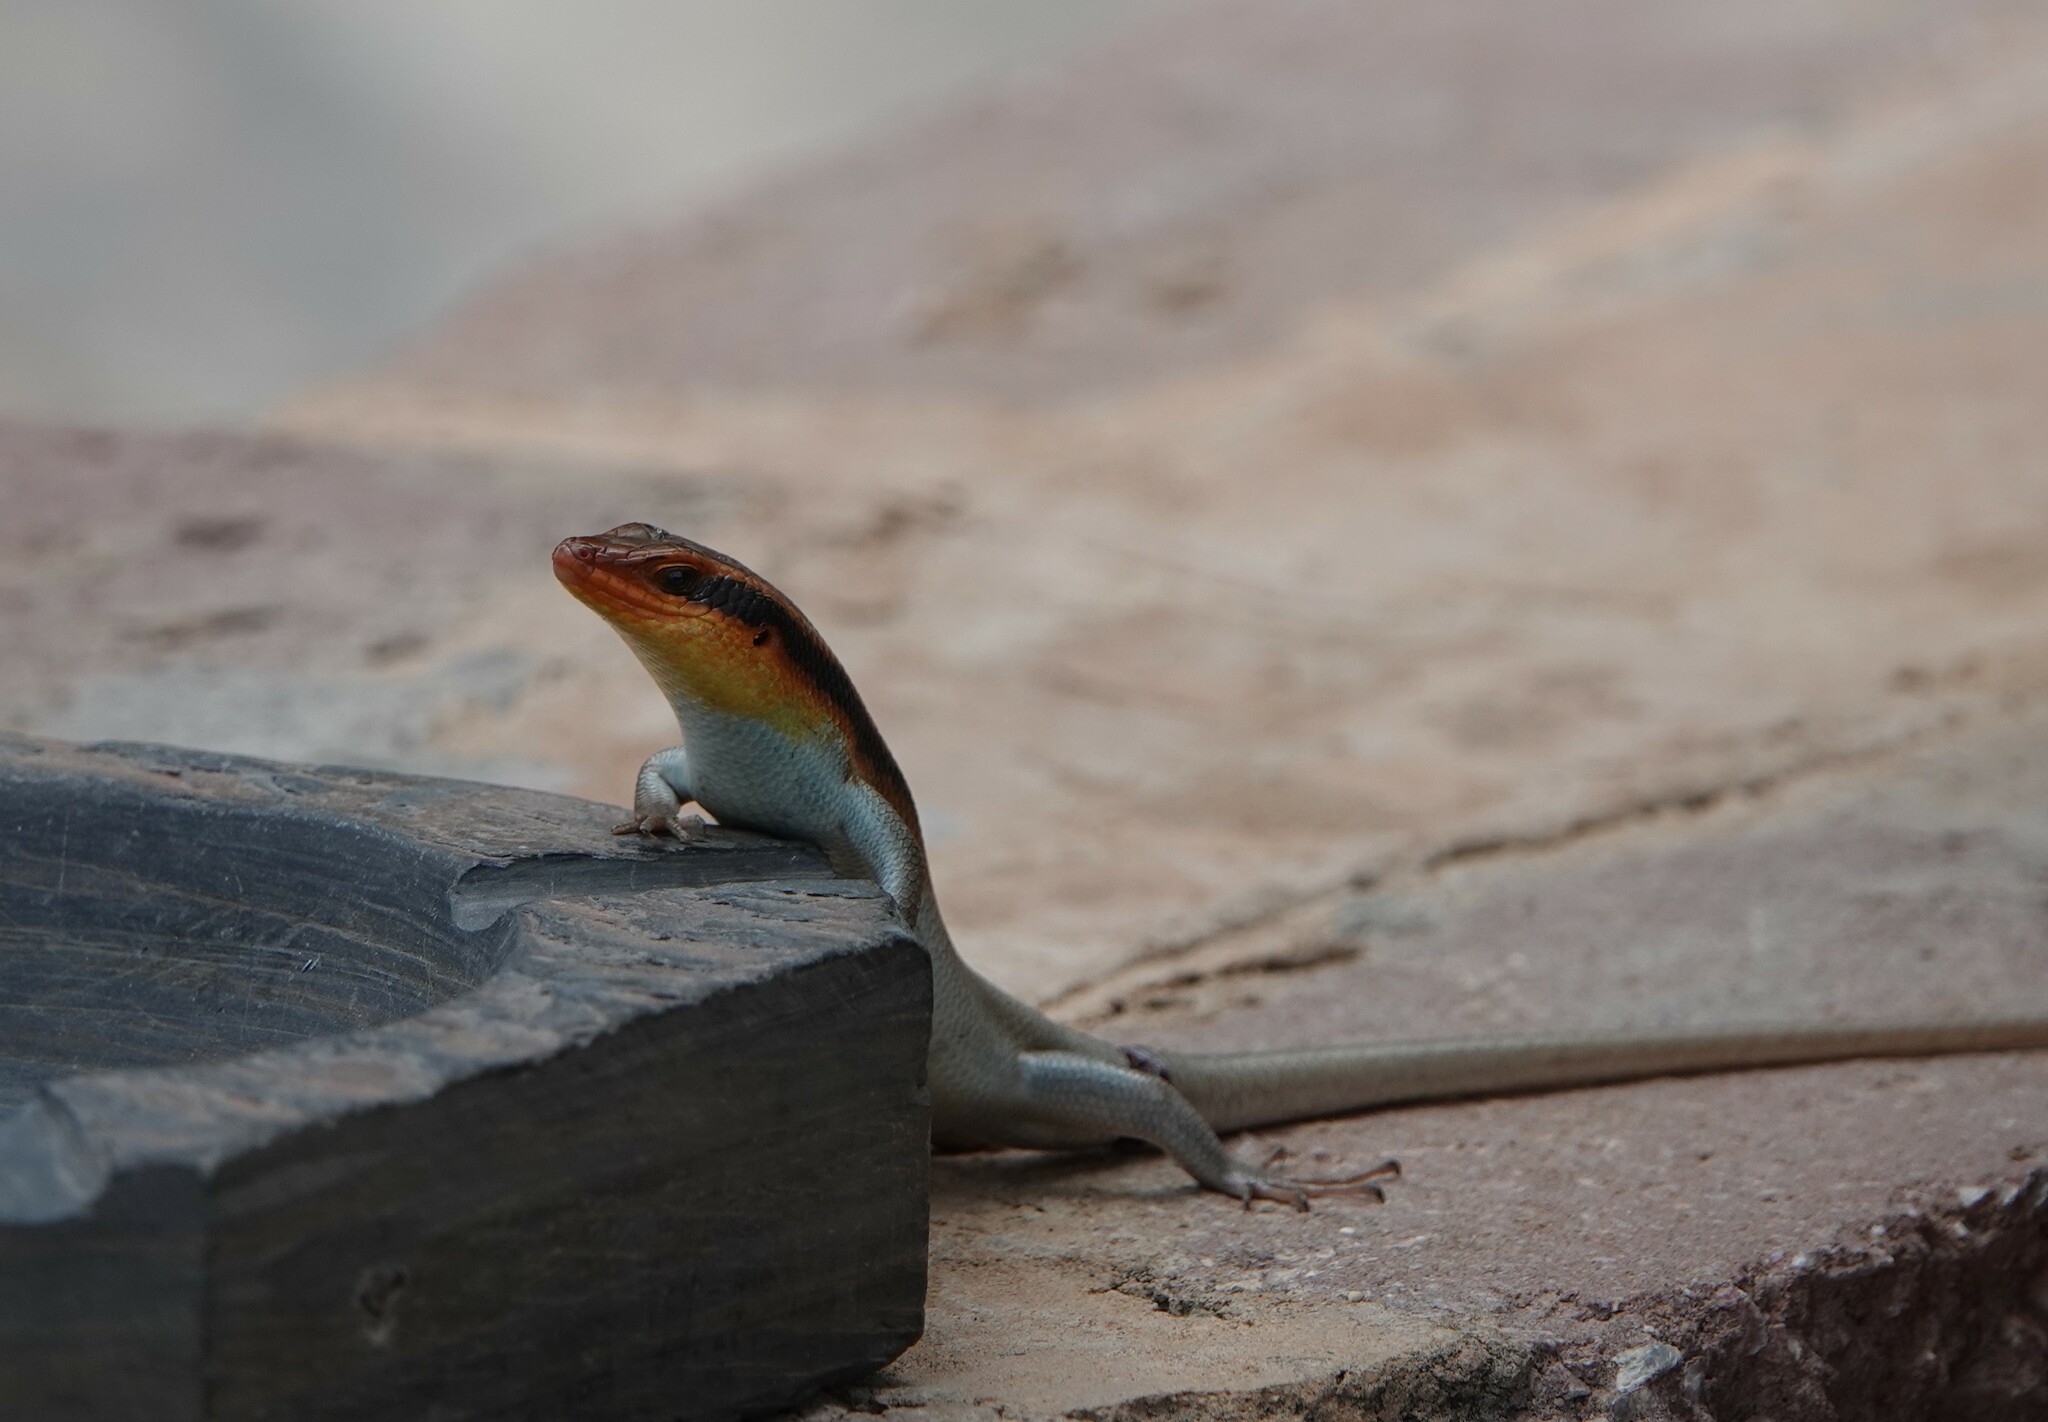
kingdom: Animalia
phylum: Chordata
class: Squamata
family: Scincidae
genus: Trachylepis
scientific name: Trachylepis wahlbergii
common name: Wahlberg’s striped skink
